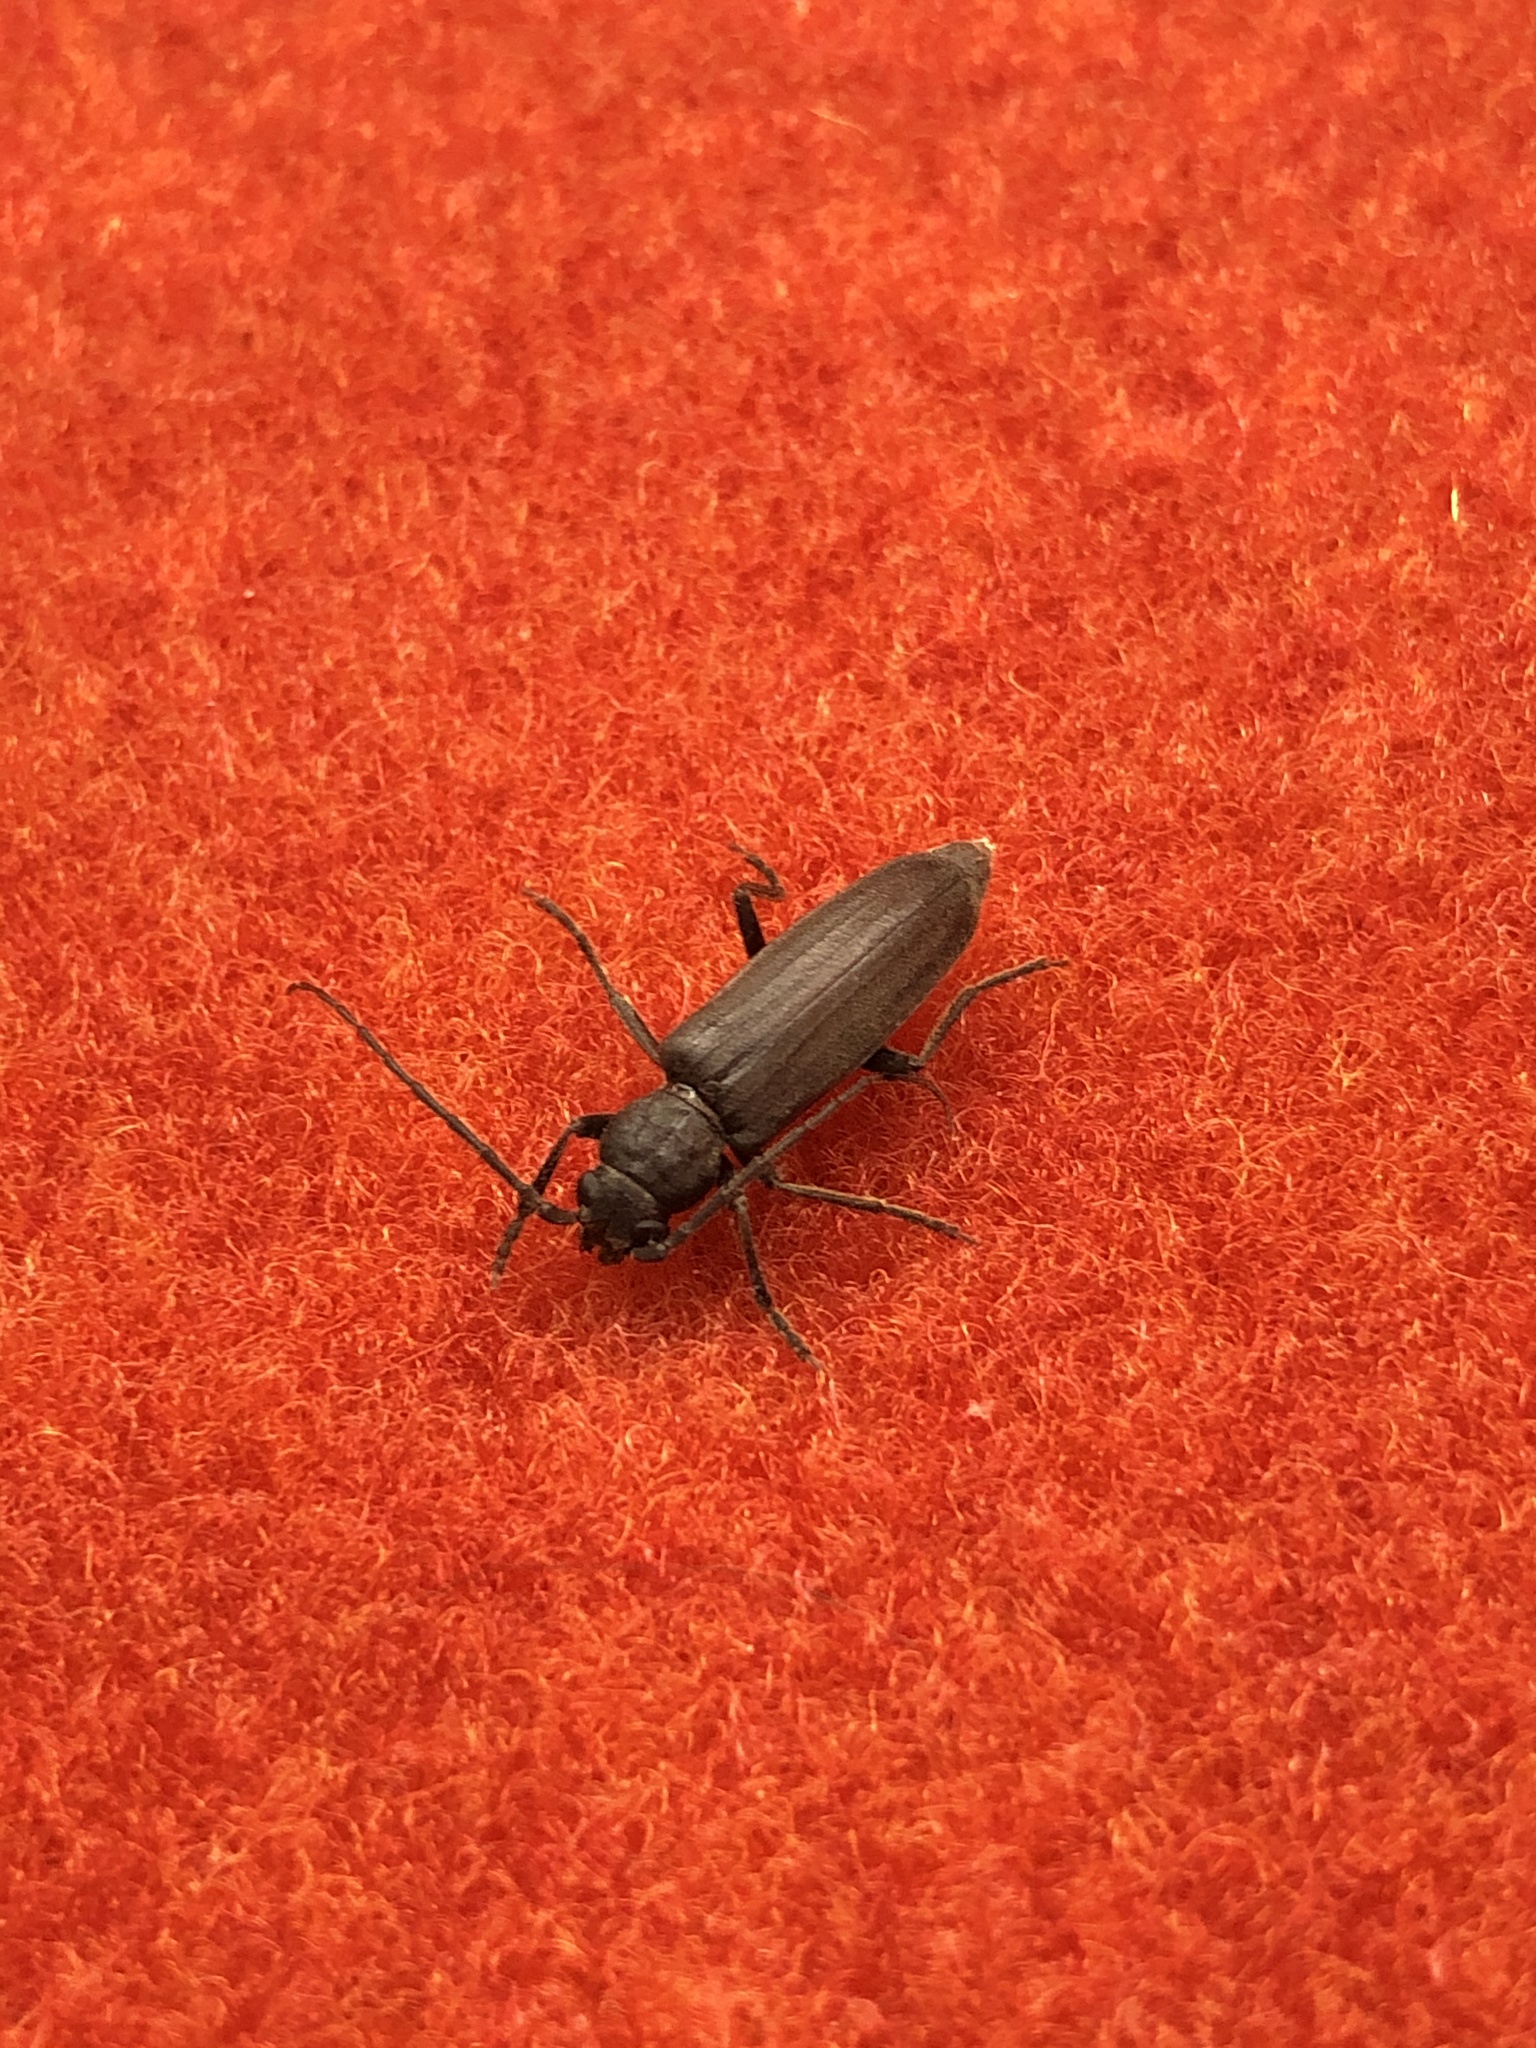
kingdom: Animalia
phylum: Arthropoda
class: Insecta
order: Coleoptera
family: Cerambycidae
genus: Arhopalus
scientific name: Arhopalus ferus
